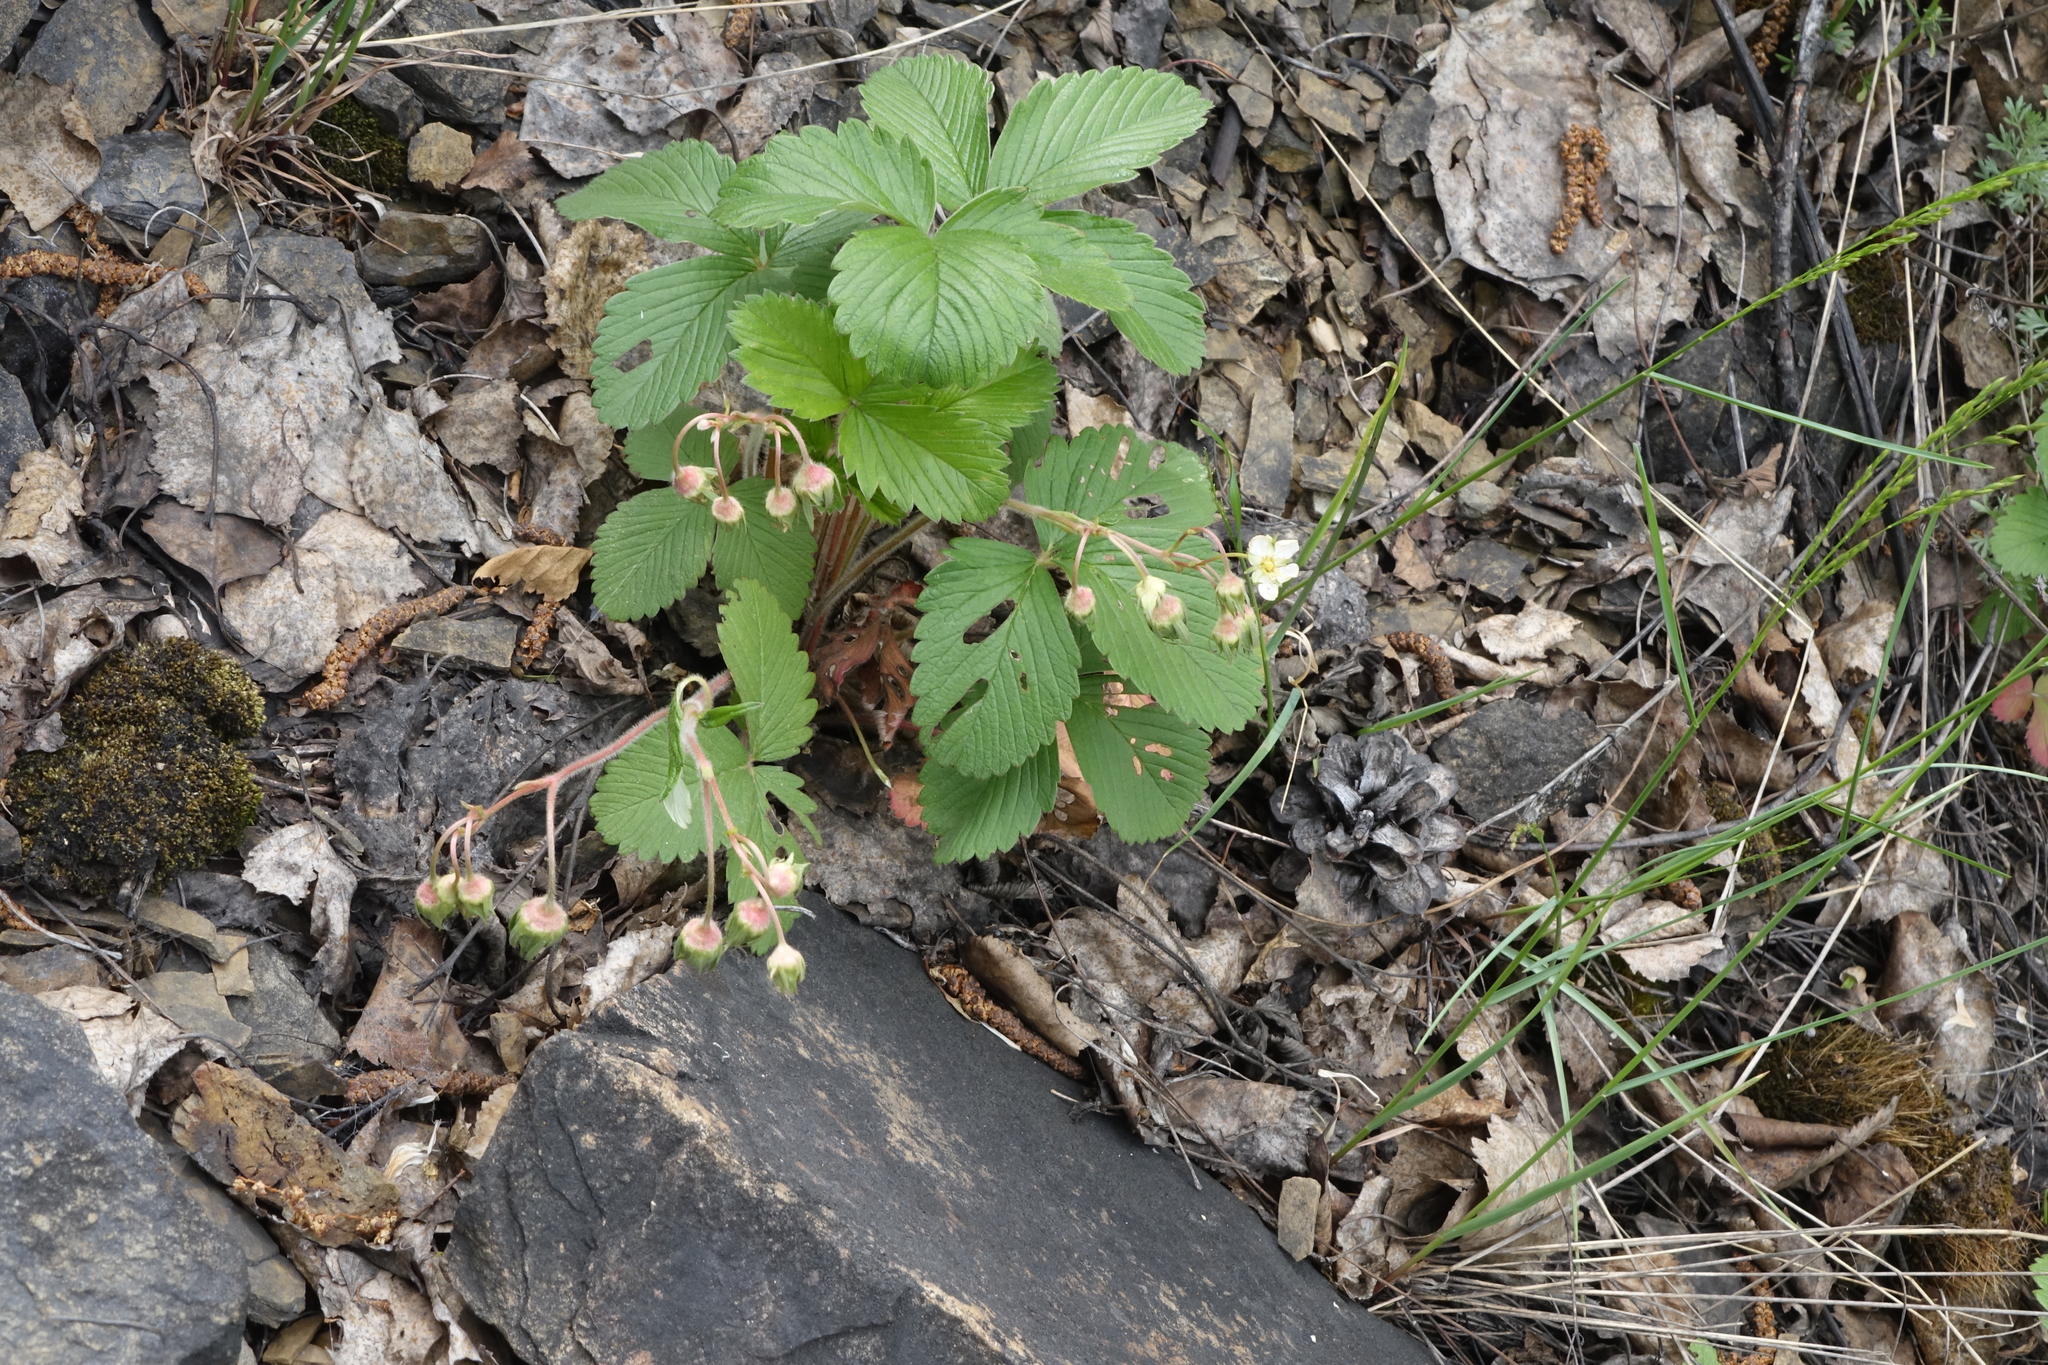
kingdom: Plantae
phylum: Tracheophyta
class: Magnoliopsida
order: Rosales
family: Rosaceae
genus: Fragaria
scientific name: Fragaria viridis
